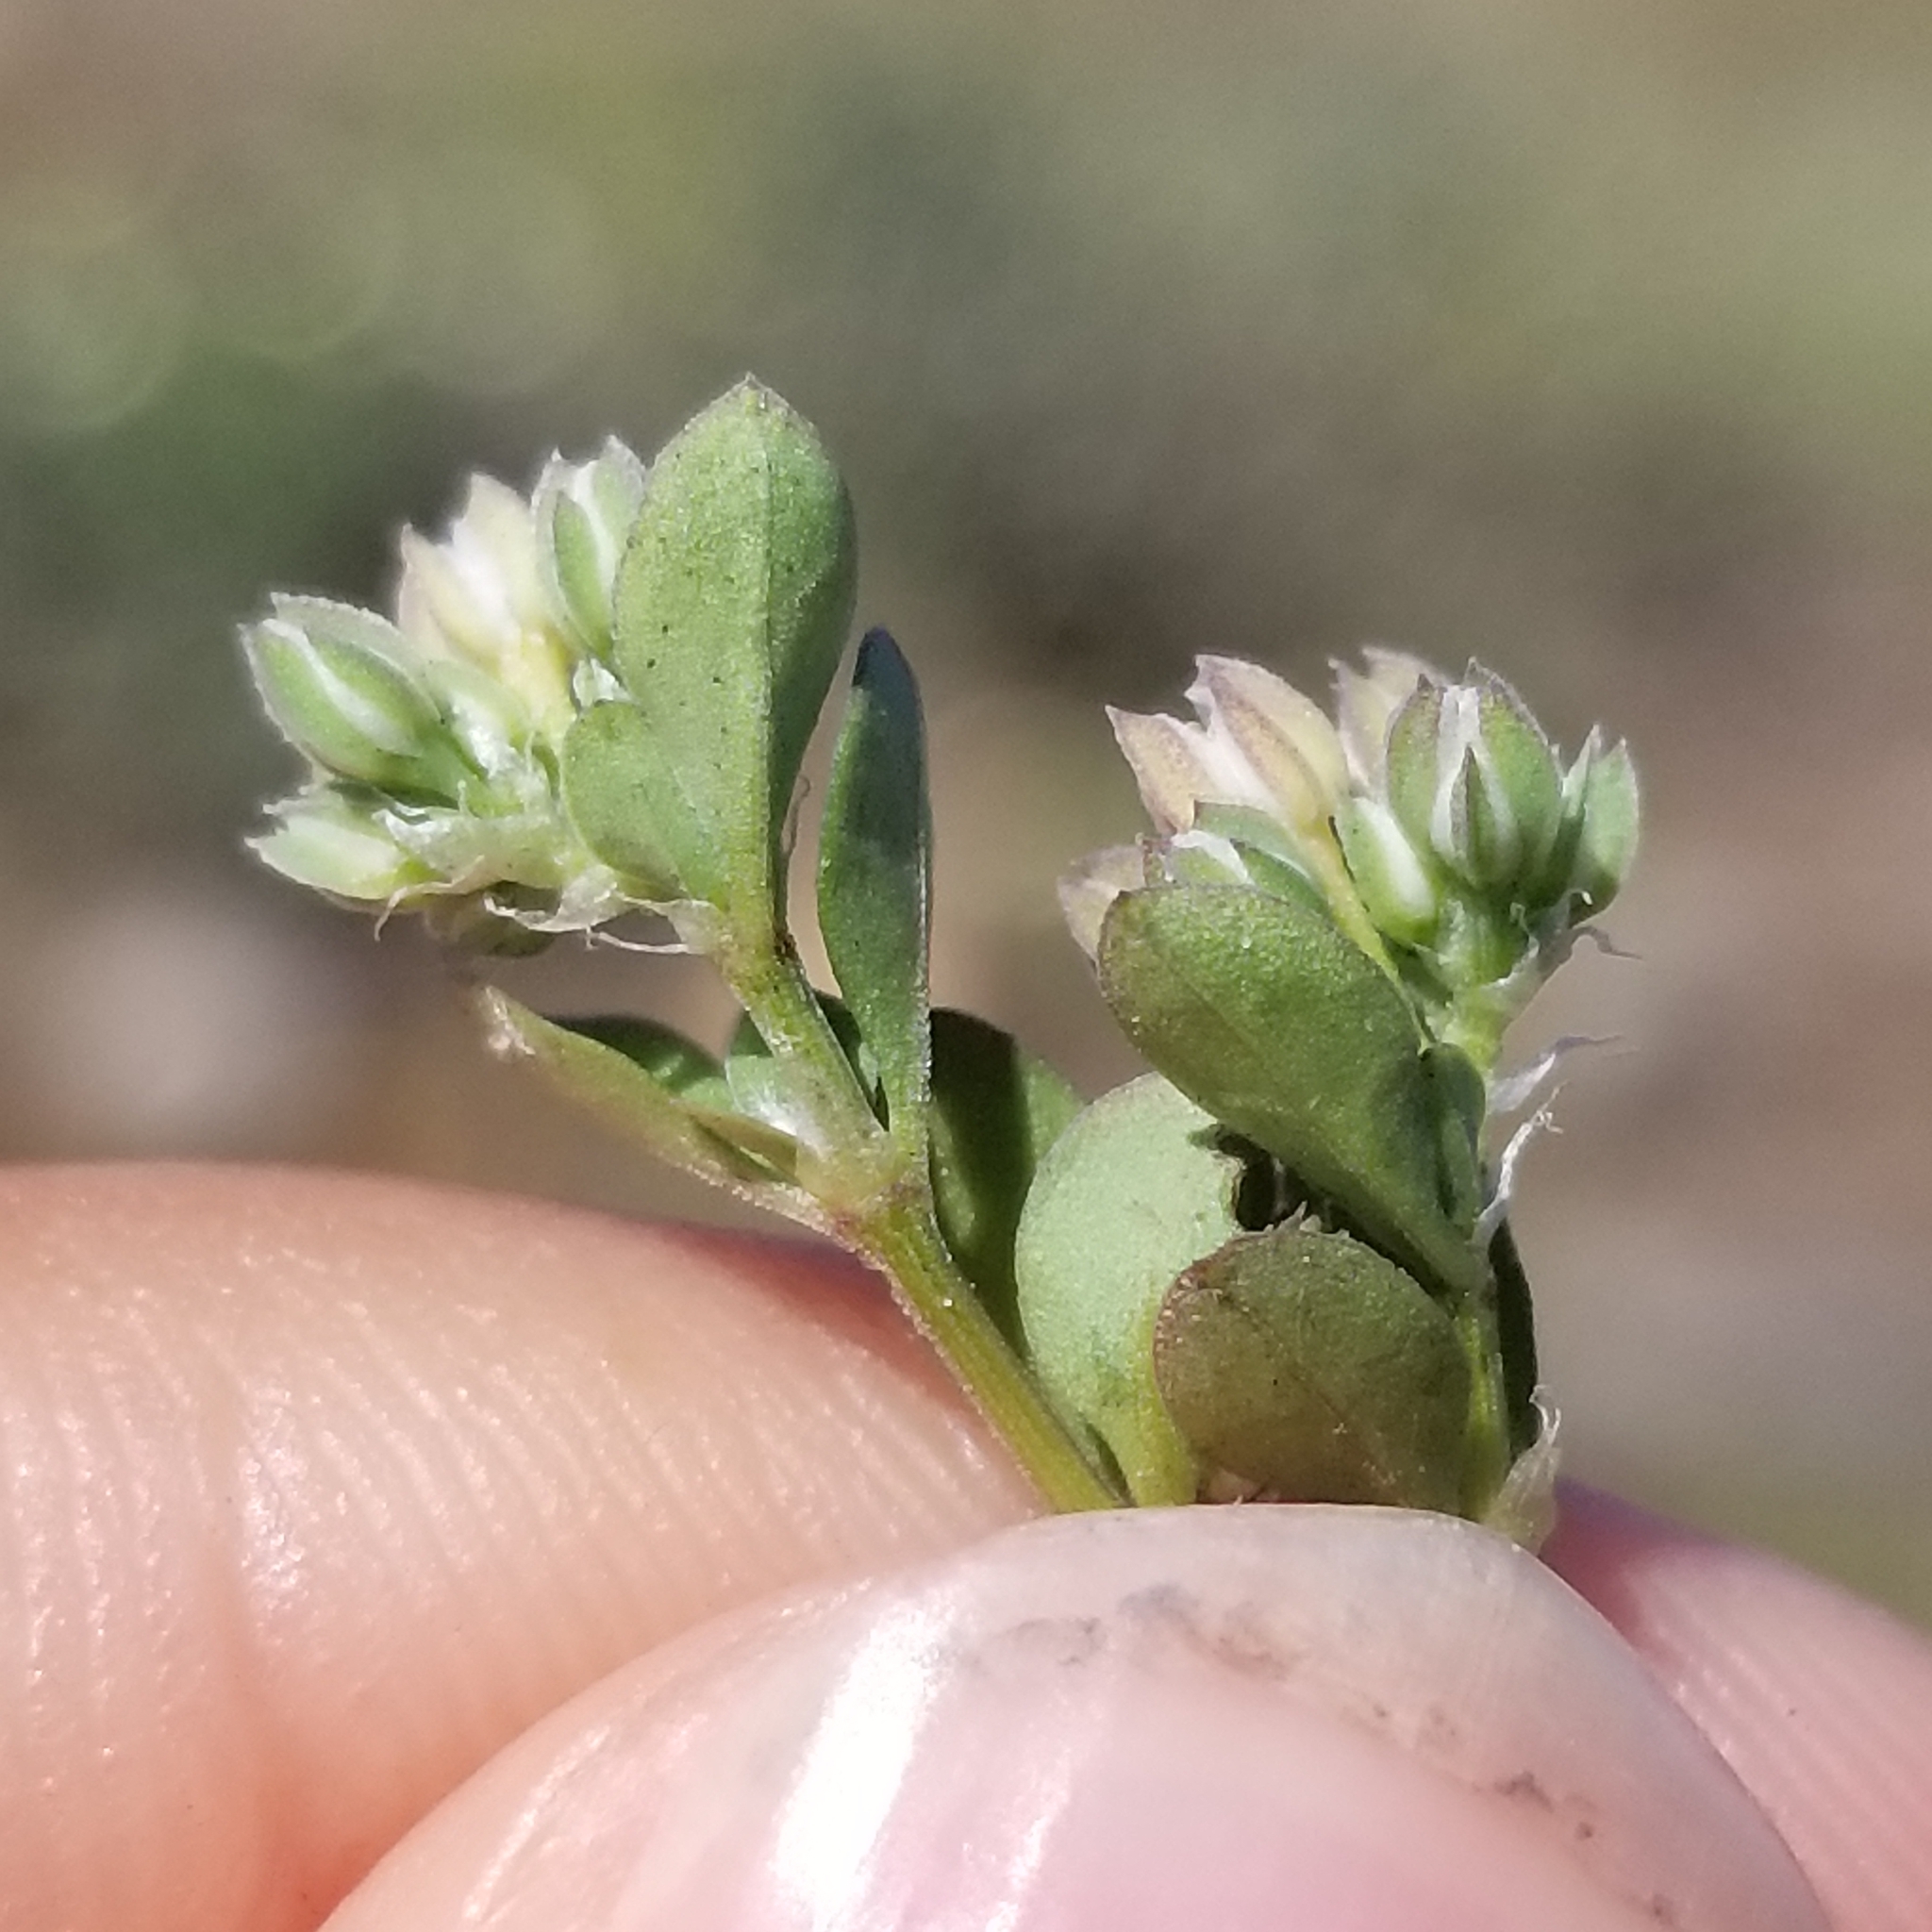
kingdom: Plantae
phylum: Tracheophyta
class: Magnoliopsida
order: Caryophyllales
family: Caryophyllaceae
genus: Polycarpon
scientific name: Polycarpon tetraphyllum
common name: Four-leaved all-seed
